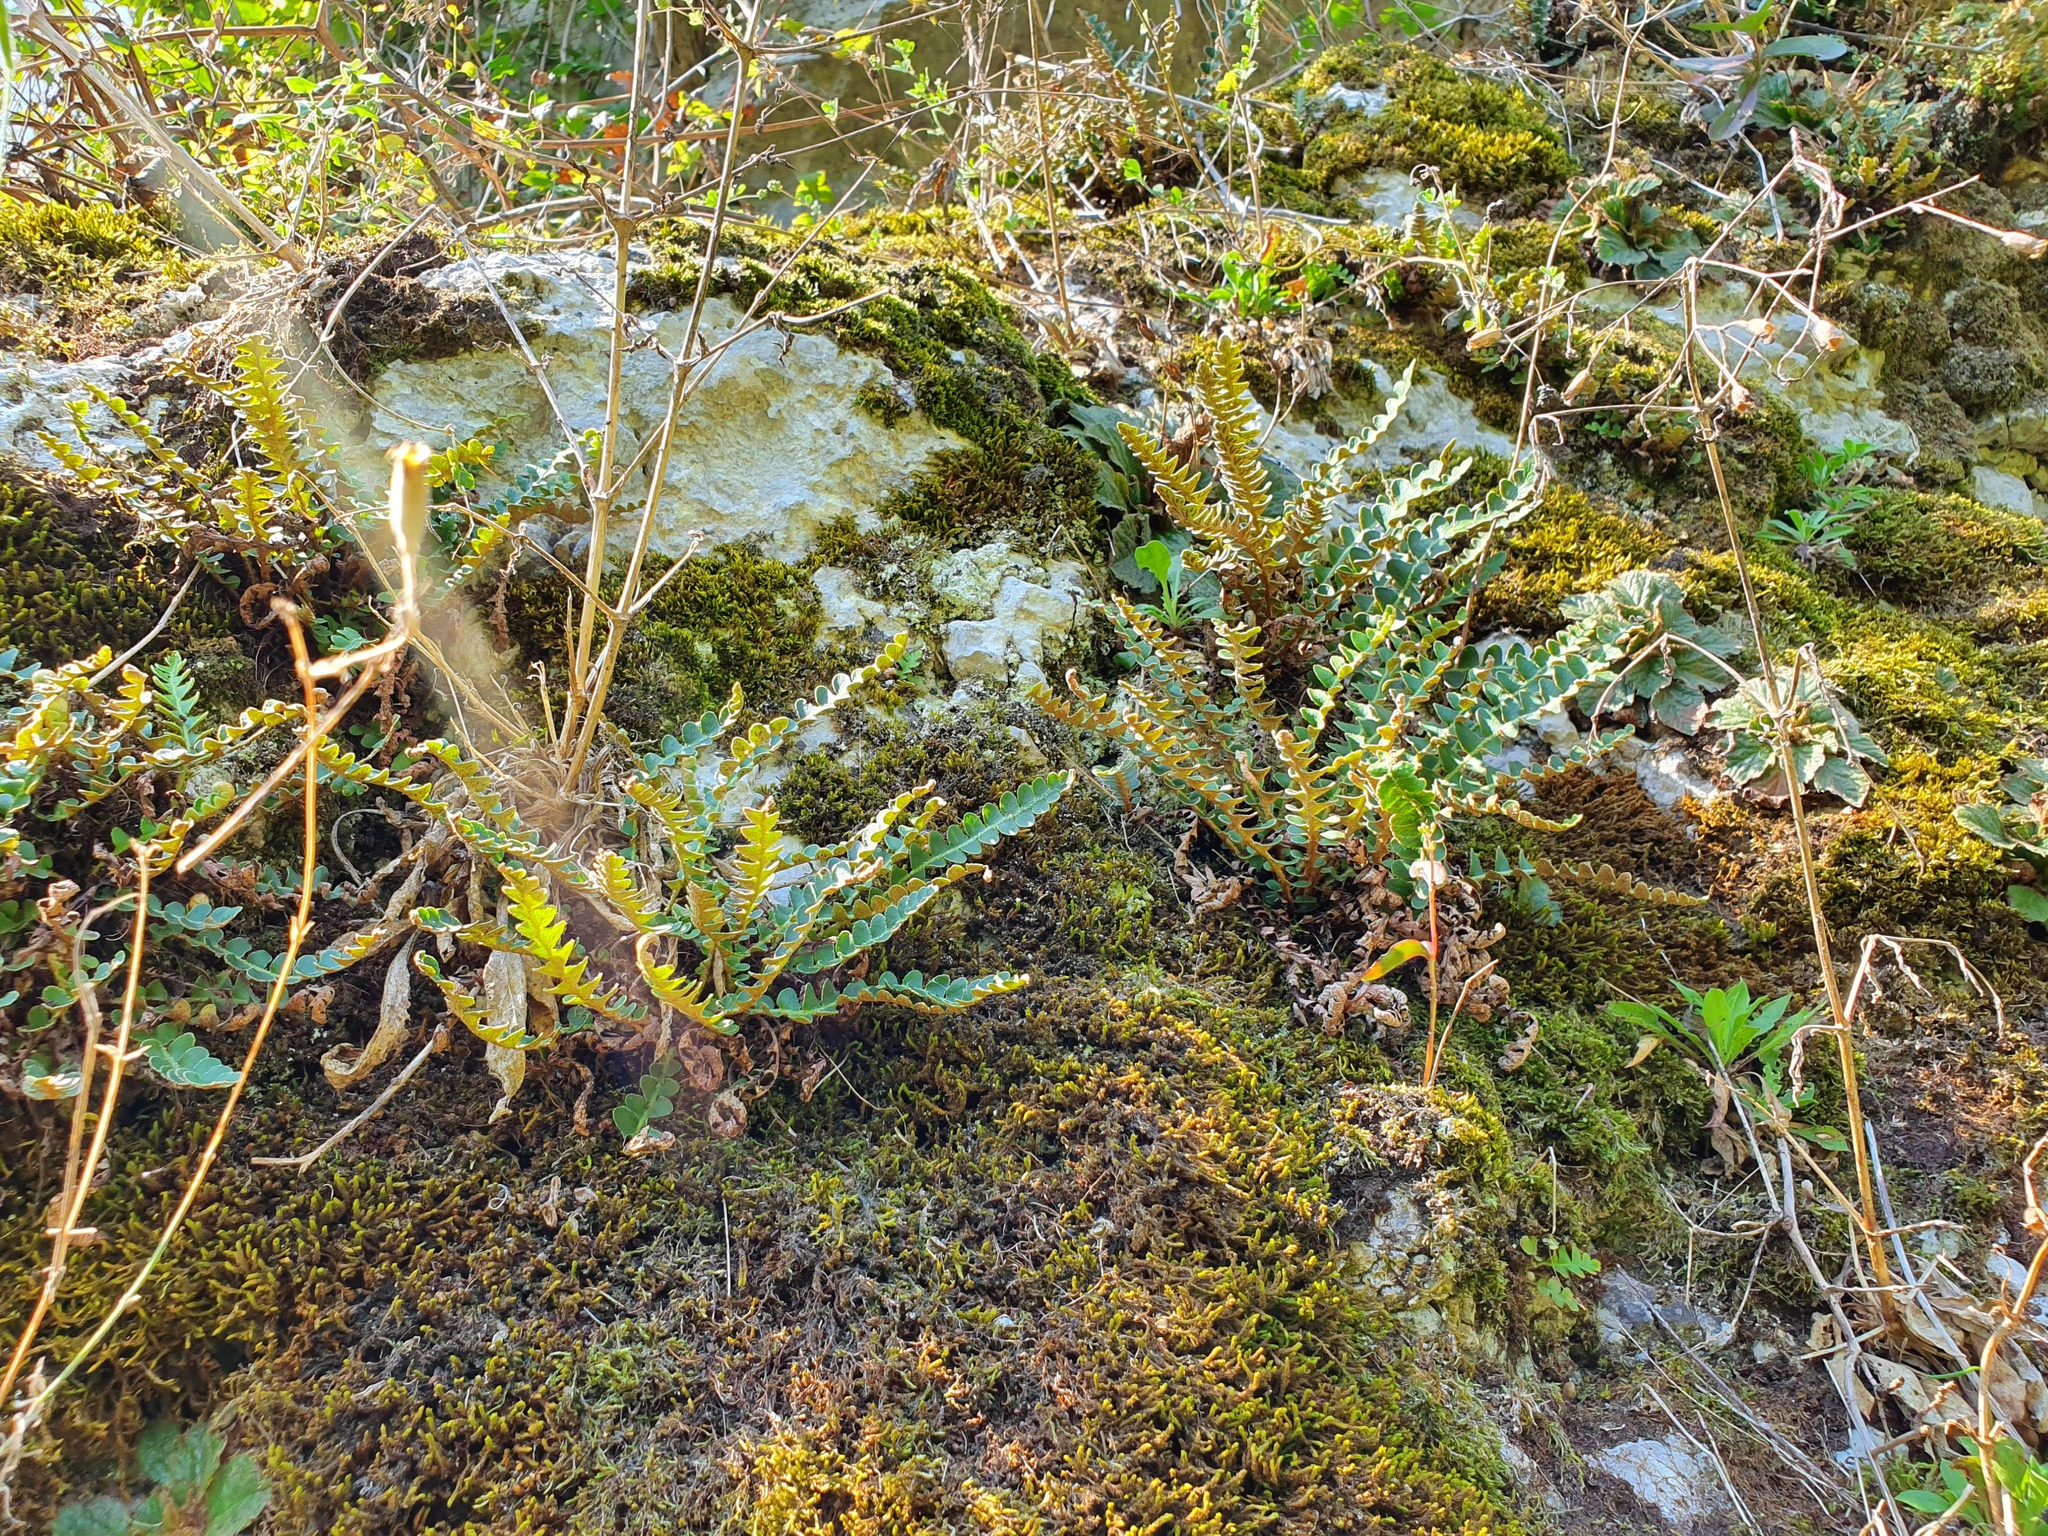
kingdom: Plantae
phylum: Tracheophyta
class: Polypodiopsida
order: Polypodiales
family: Aspleniaceae
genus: Asplenium
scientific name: Asplenium ceterach
